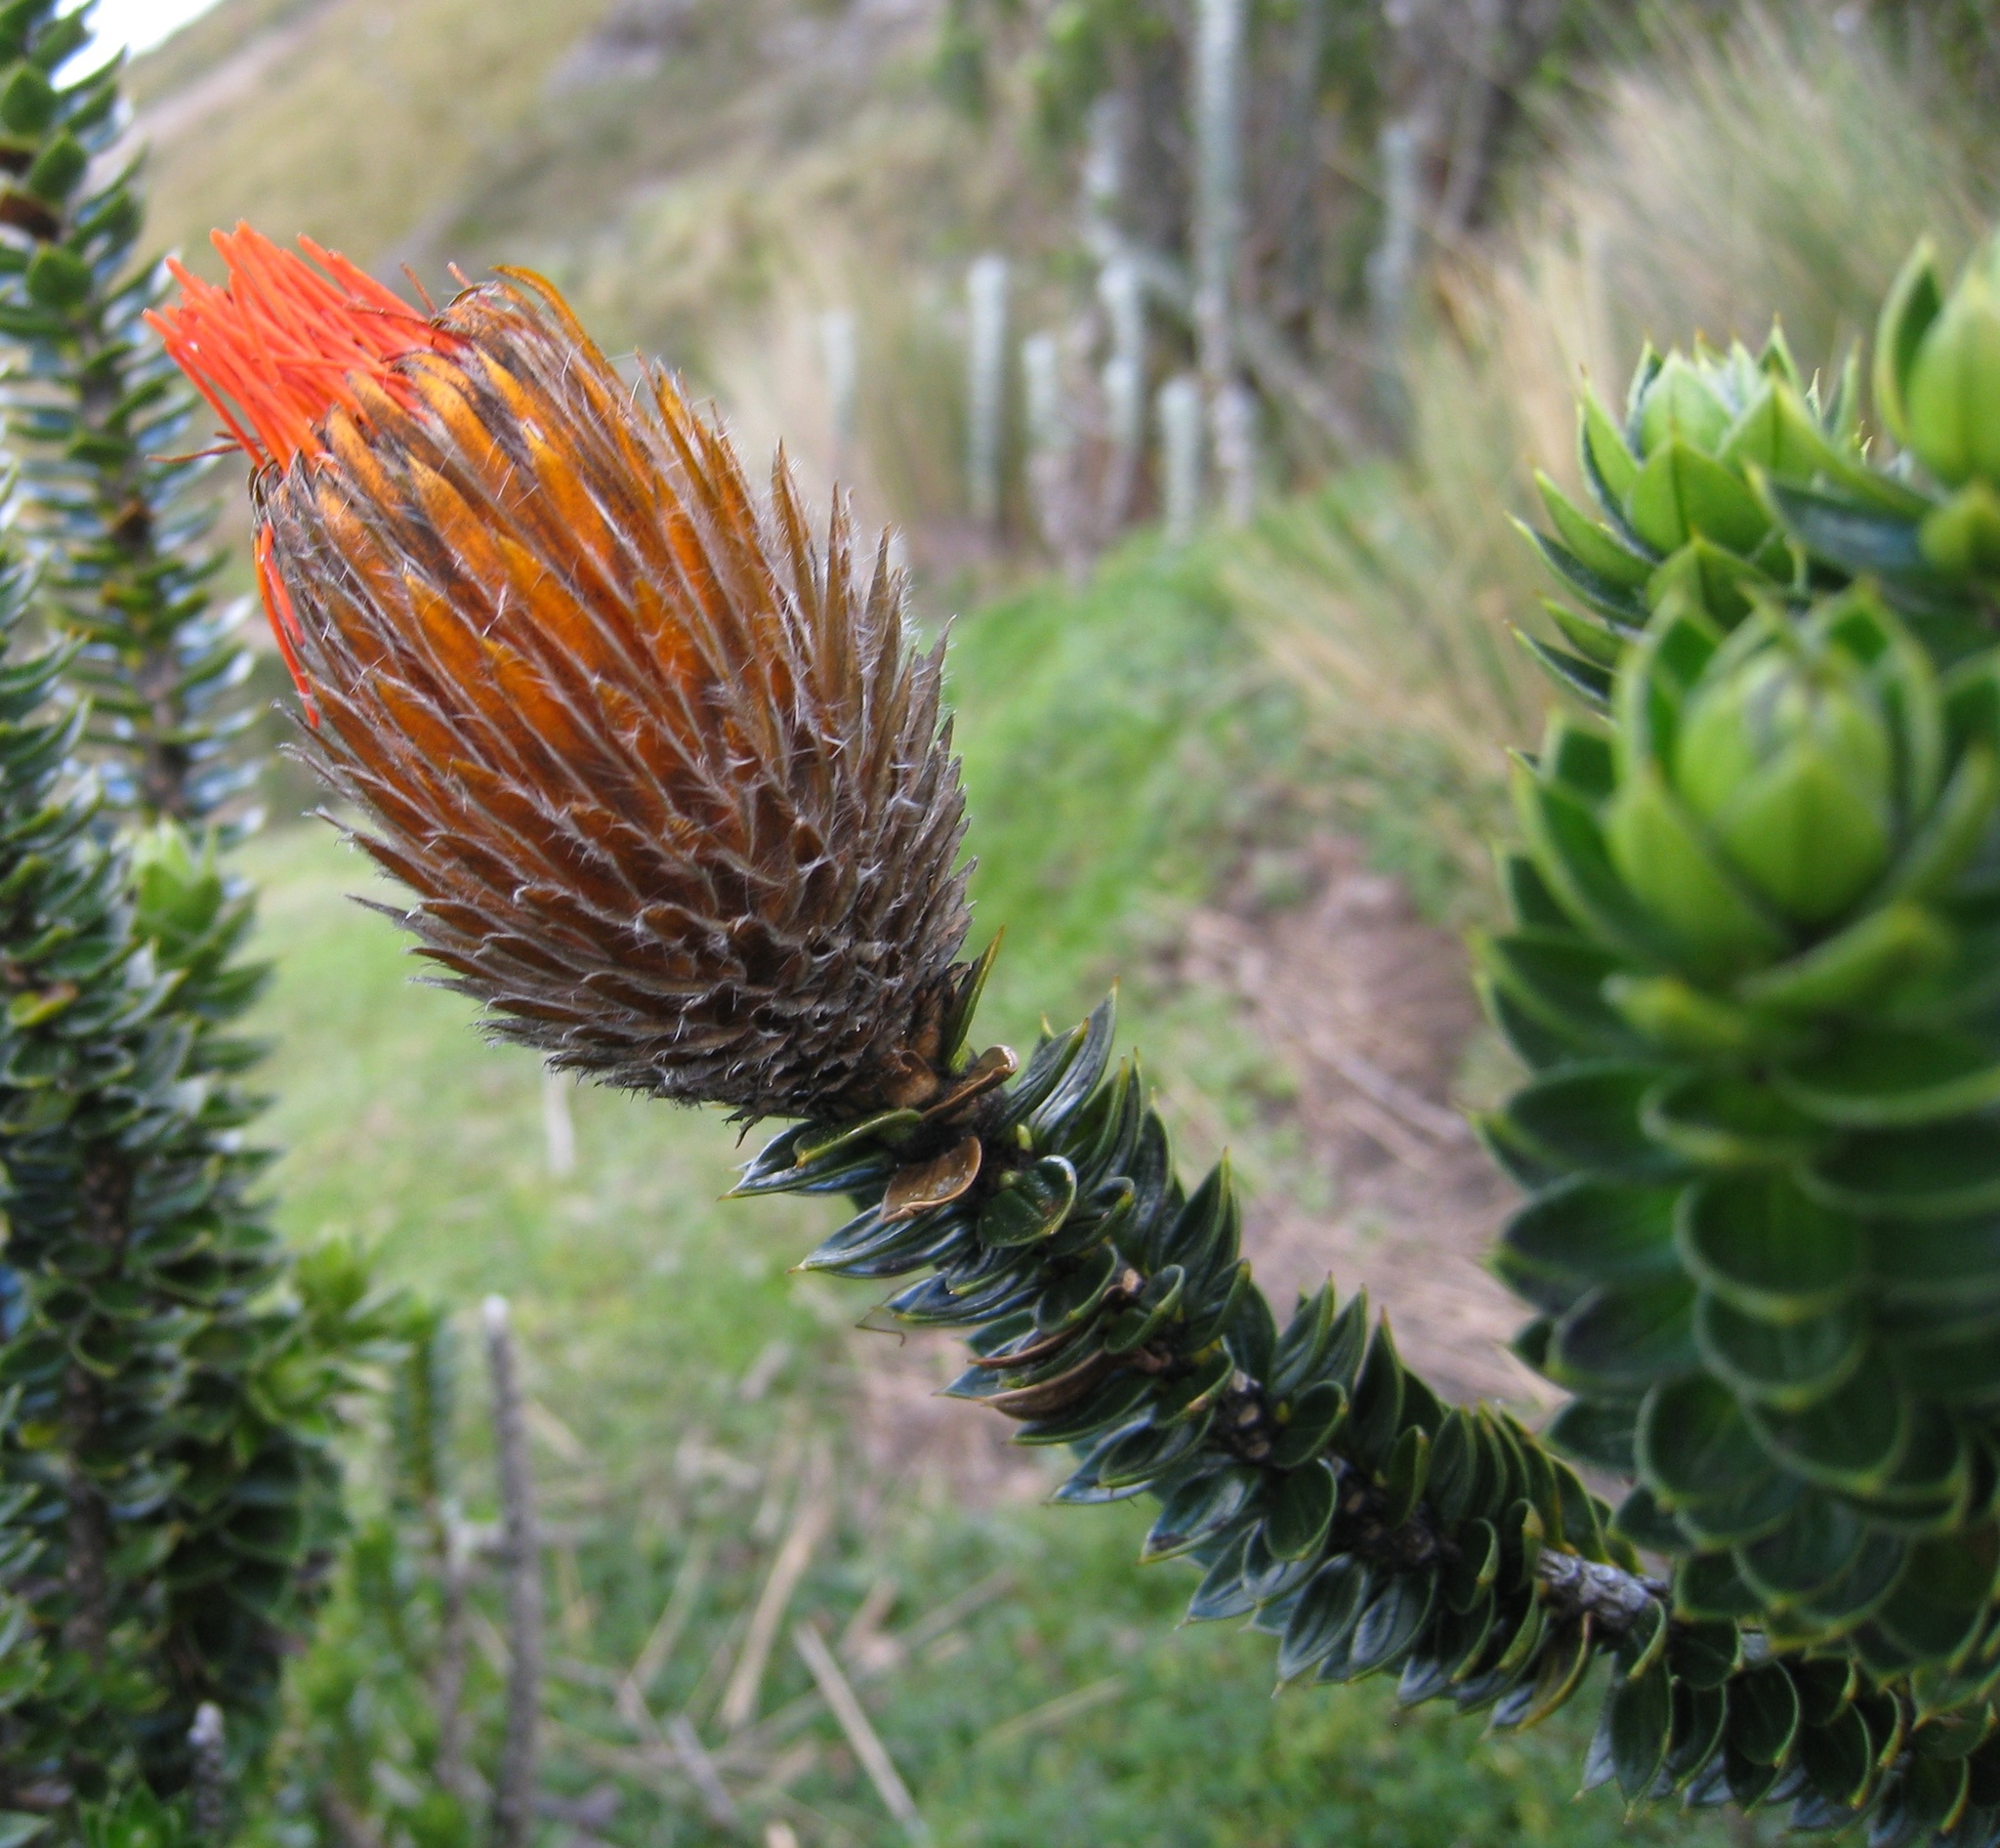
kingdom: Plantae
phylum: Tracheophyta
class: Magnoliopsida
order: Asterales
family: Asteraceae
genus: Chuquiraga
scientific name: Chuquiraga jussieui
